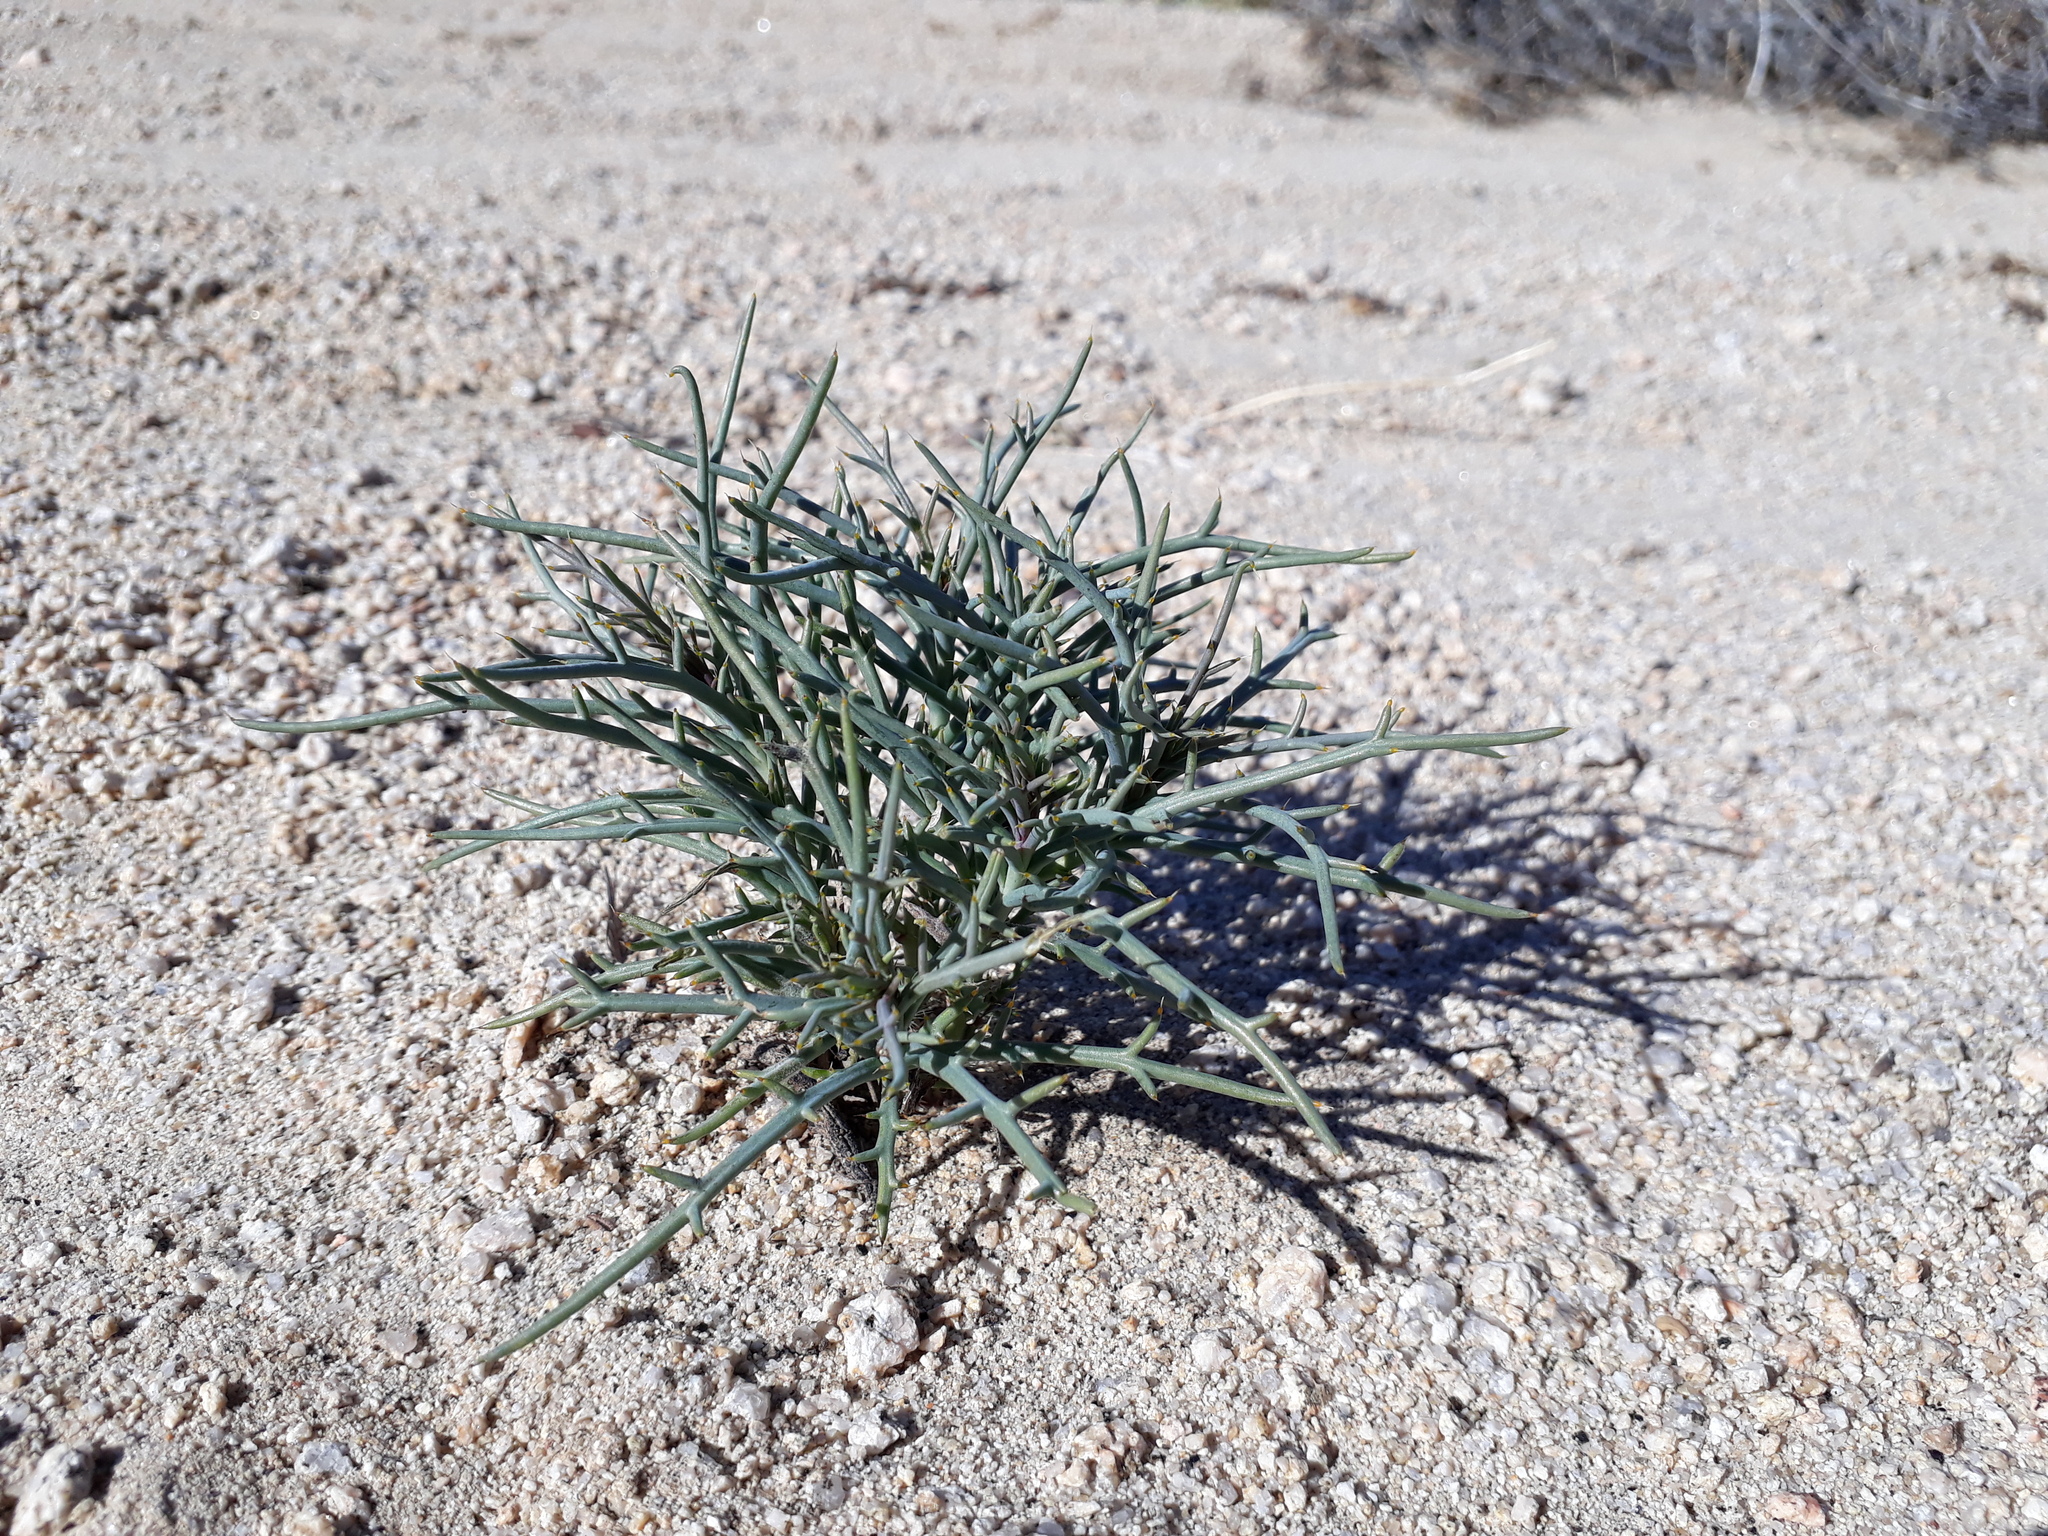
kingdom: Plantae
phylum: Tracheophyta
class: Magnoliopsida
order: Asterales
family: Asteraceae
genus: Nicolletia
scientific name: Nicolletia occidentalis
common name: Hole-in-the-sand-plant
